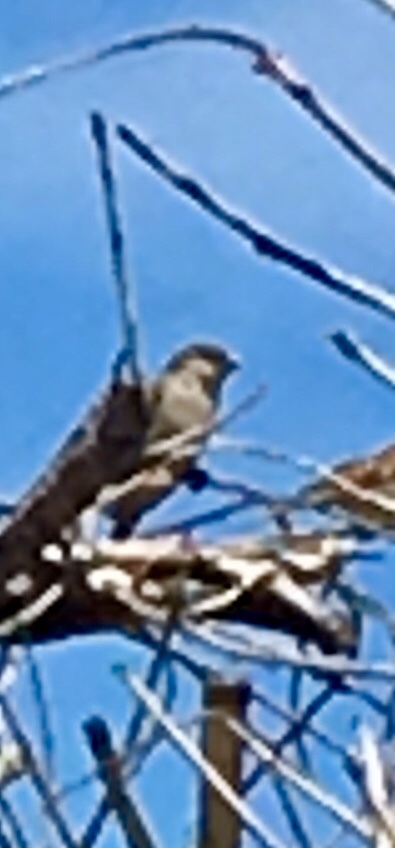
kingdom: Animalia
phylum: Chordata
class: Aves
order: Passeriformes
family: Passeridae
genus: Passer
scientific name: Passer domesticus
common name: House sparrow
